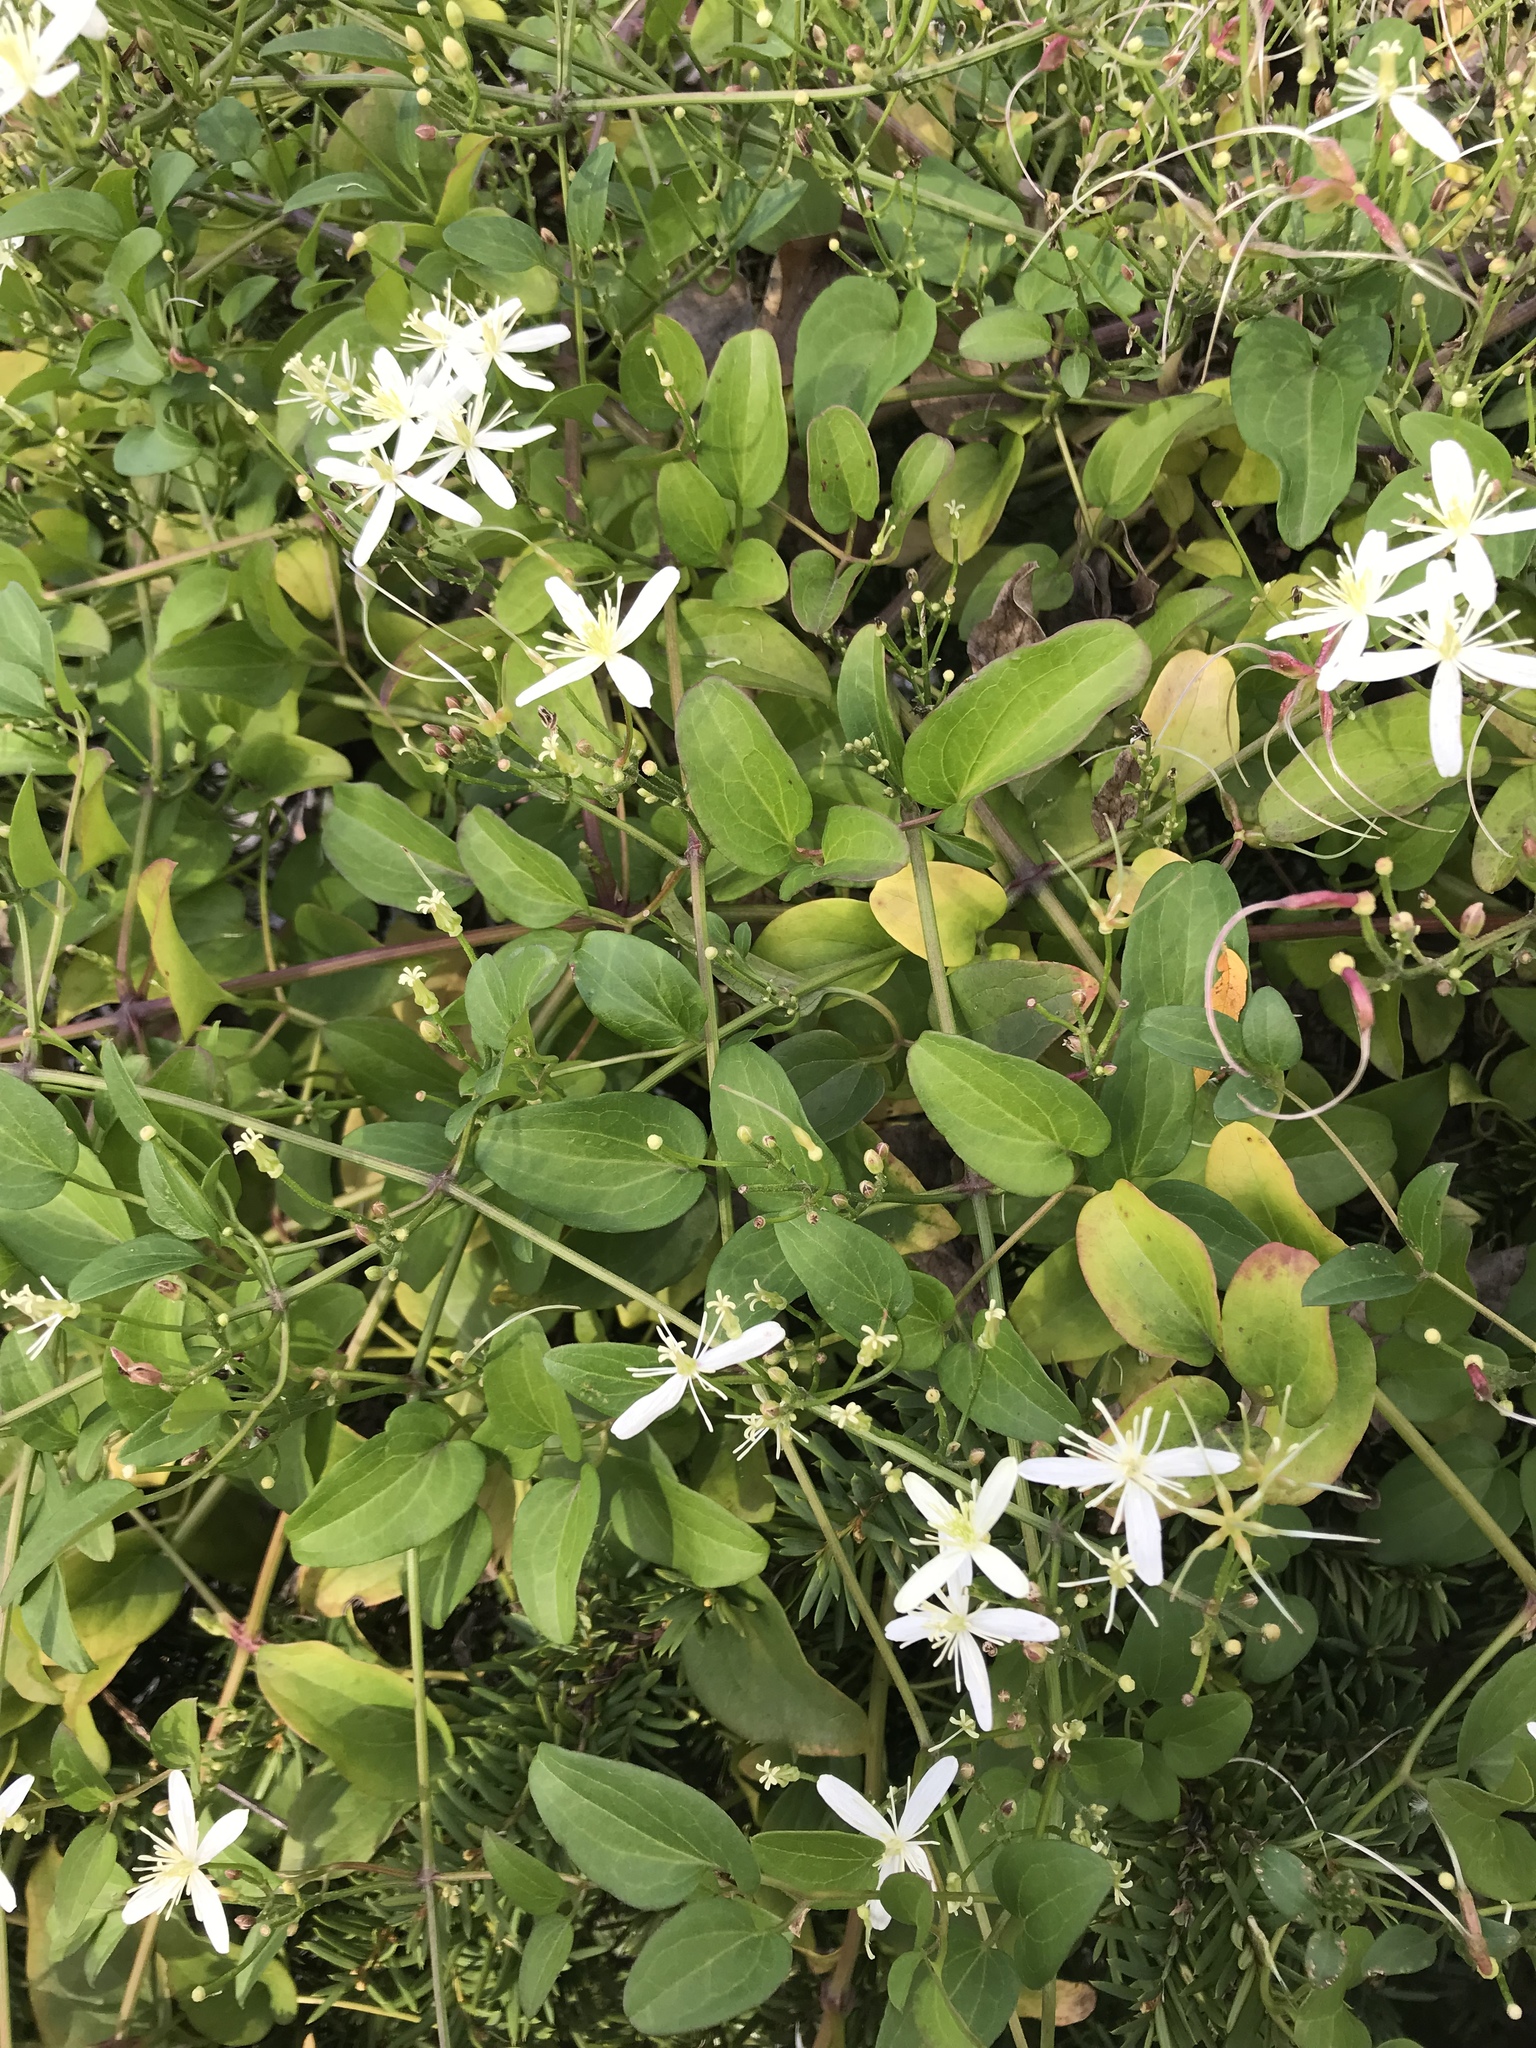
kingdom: Plantae
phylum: Tracheophyta
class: Magnoliopsida
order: Ranunculales
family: Ranunculaceae
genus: Clematis
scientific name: Clematis terniflora
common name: Sweet autumn clematis
